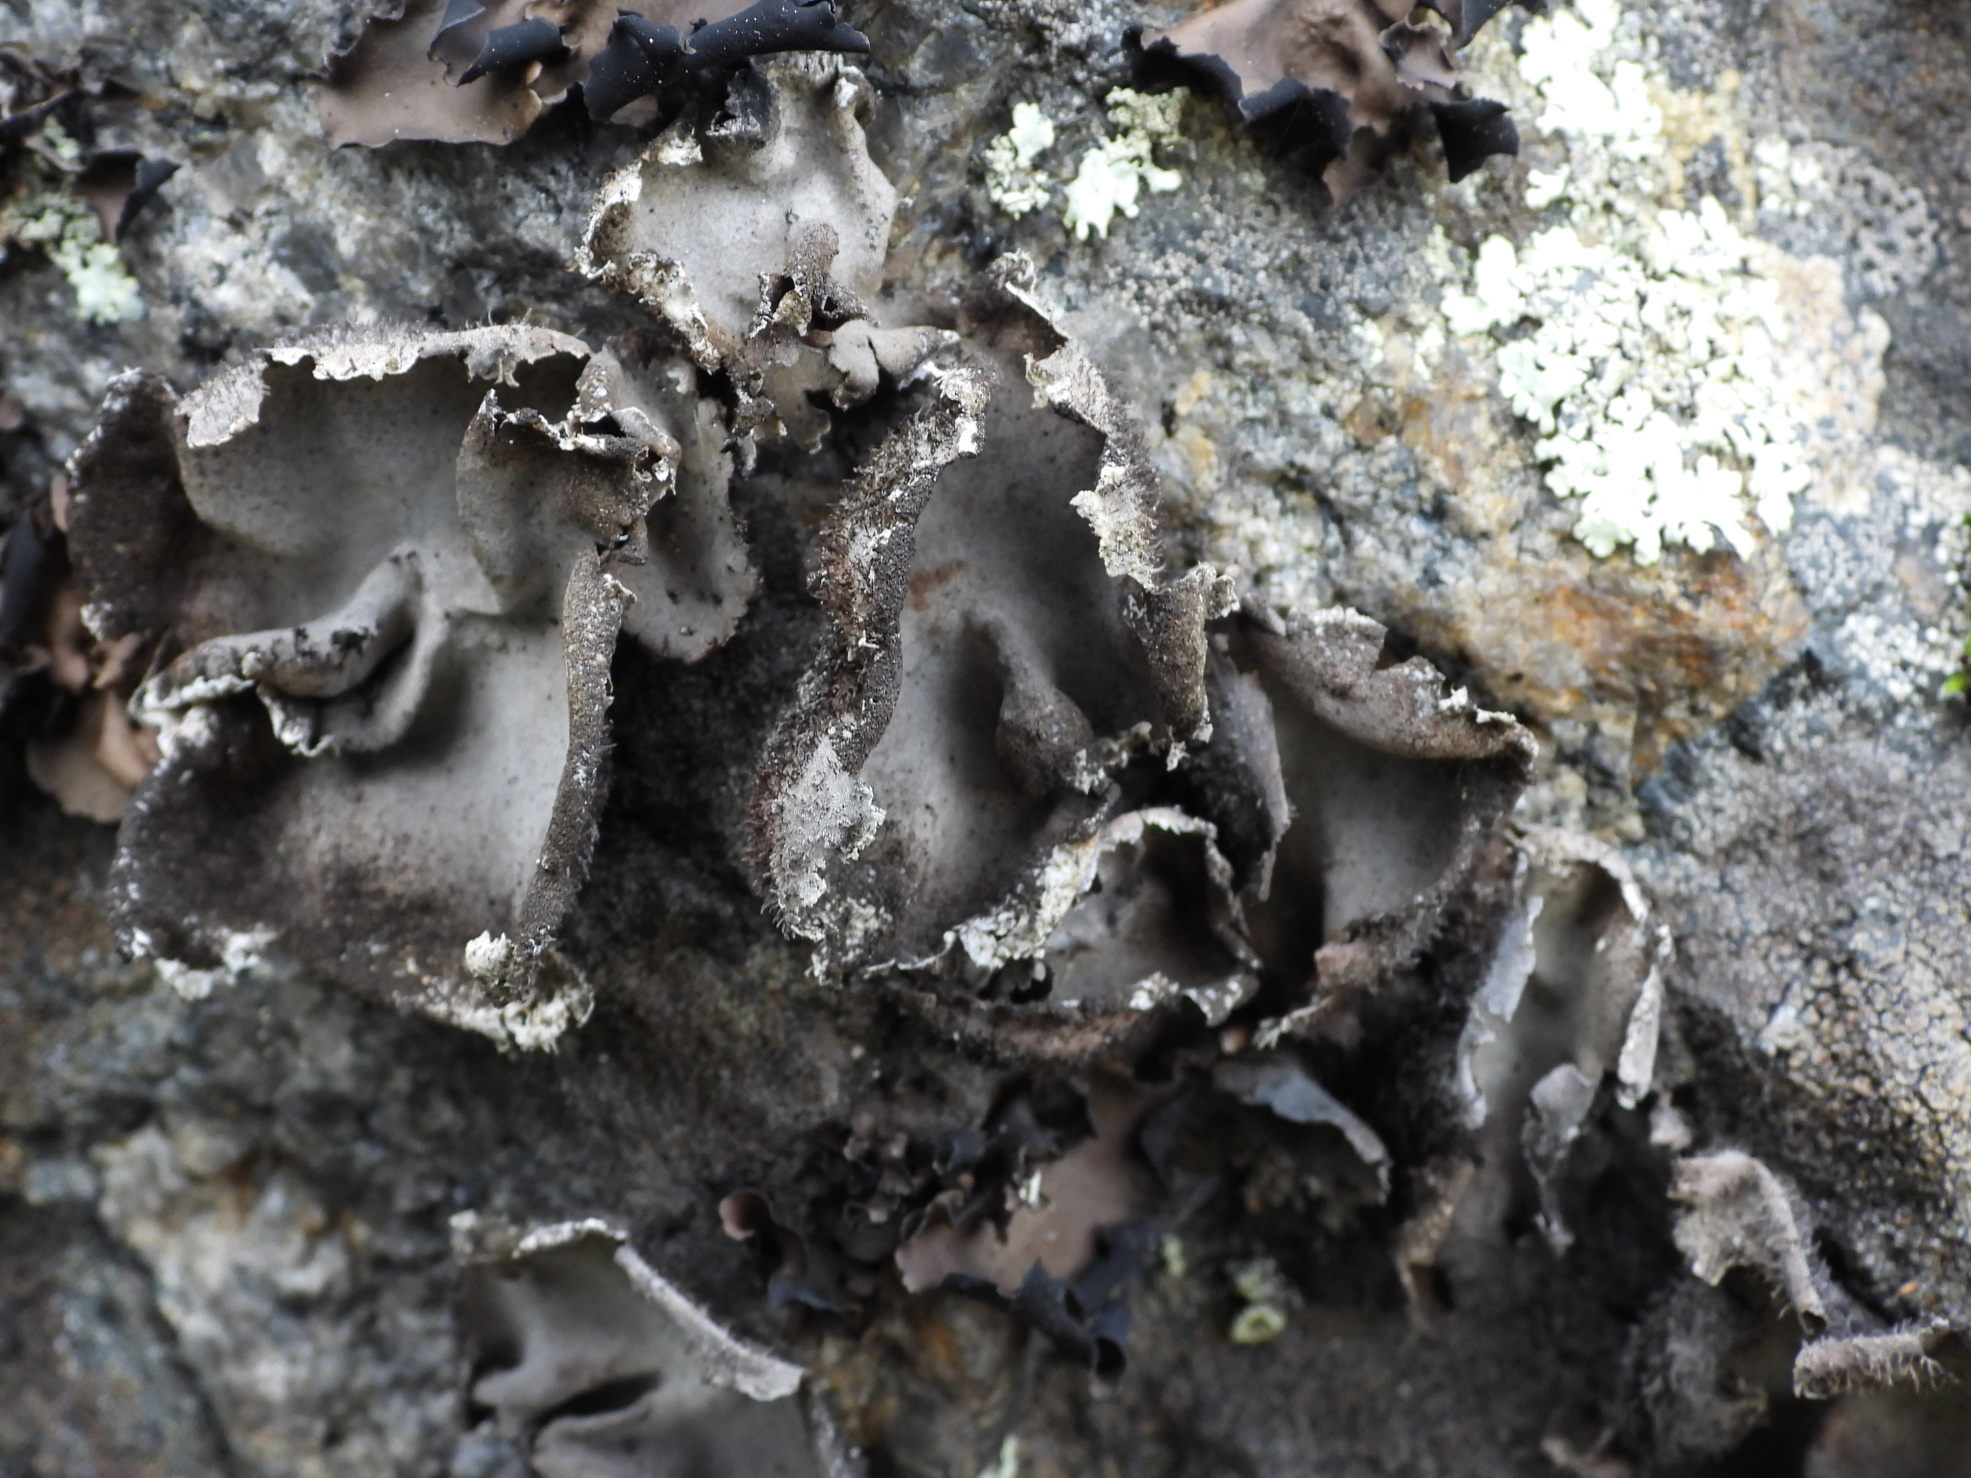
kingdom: Fungi
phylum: Ascomycota
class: Lecanoromycetes
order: Umbilicariales
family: Umbilicariaceae
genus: Umbilicaria
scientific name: Umbilicaria hirsuta
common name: Granulating rocktripe lichen
